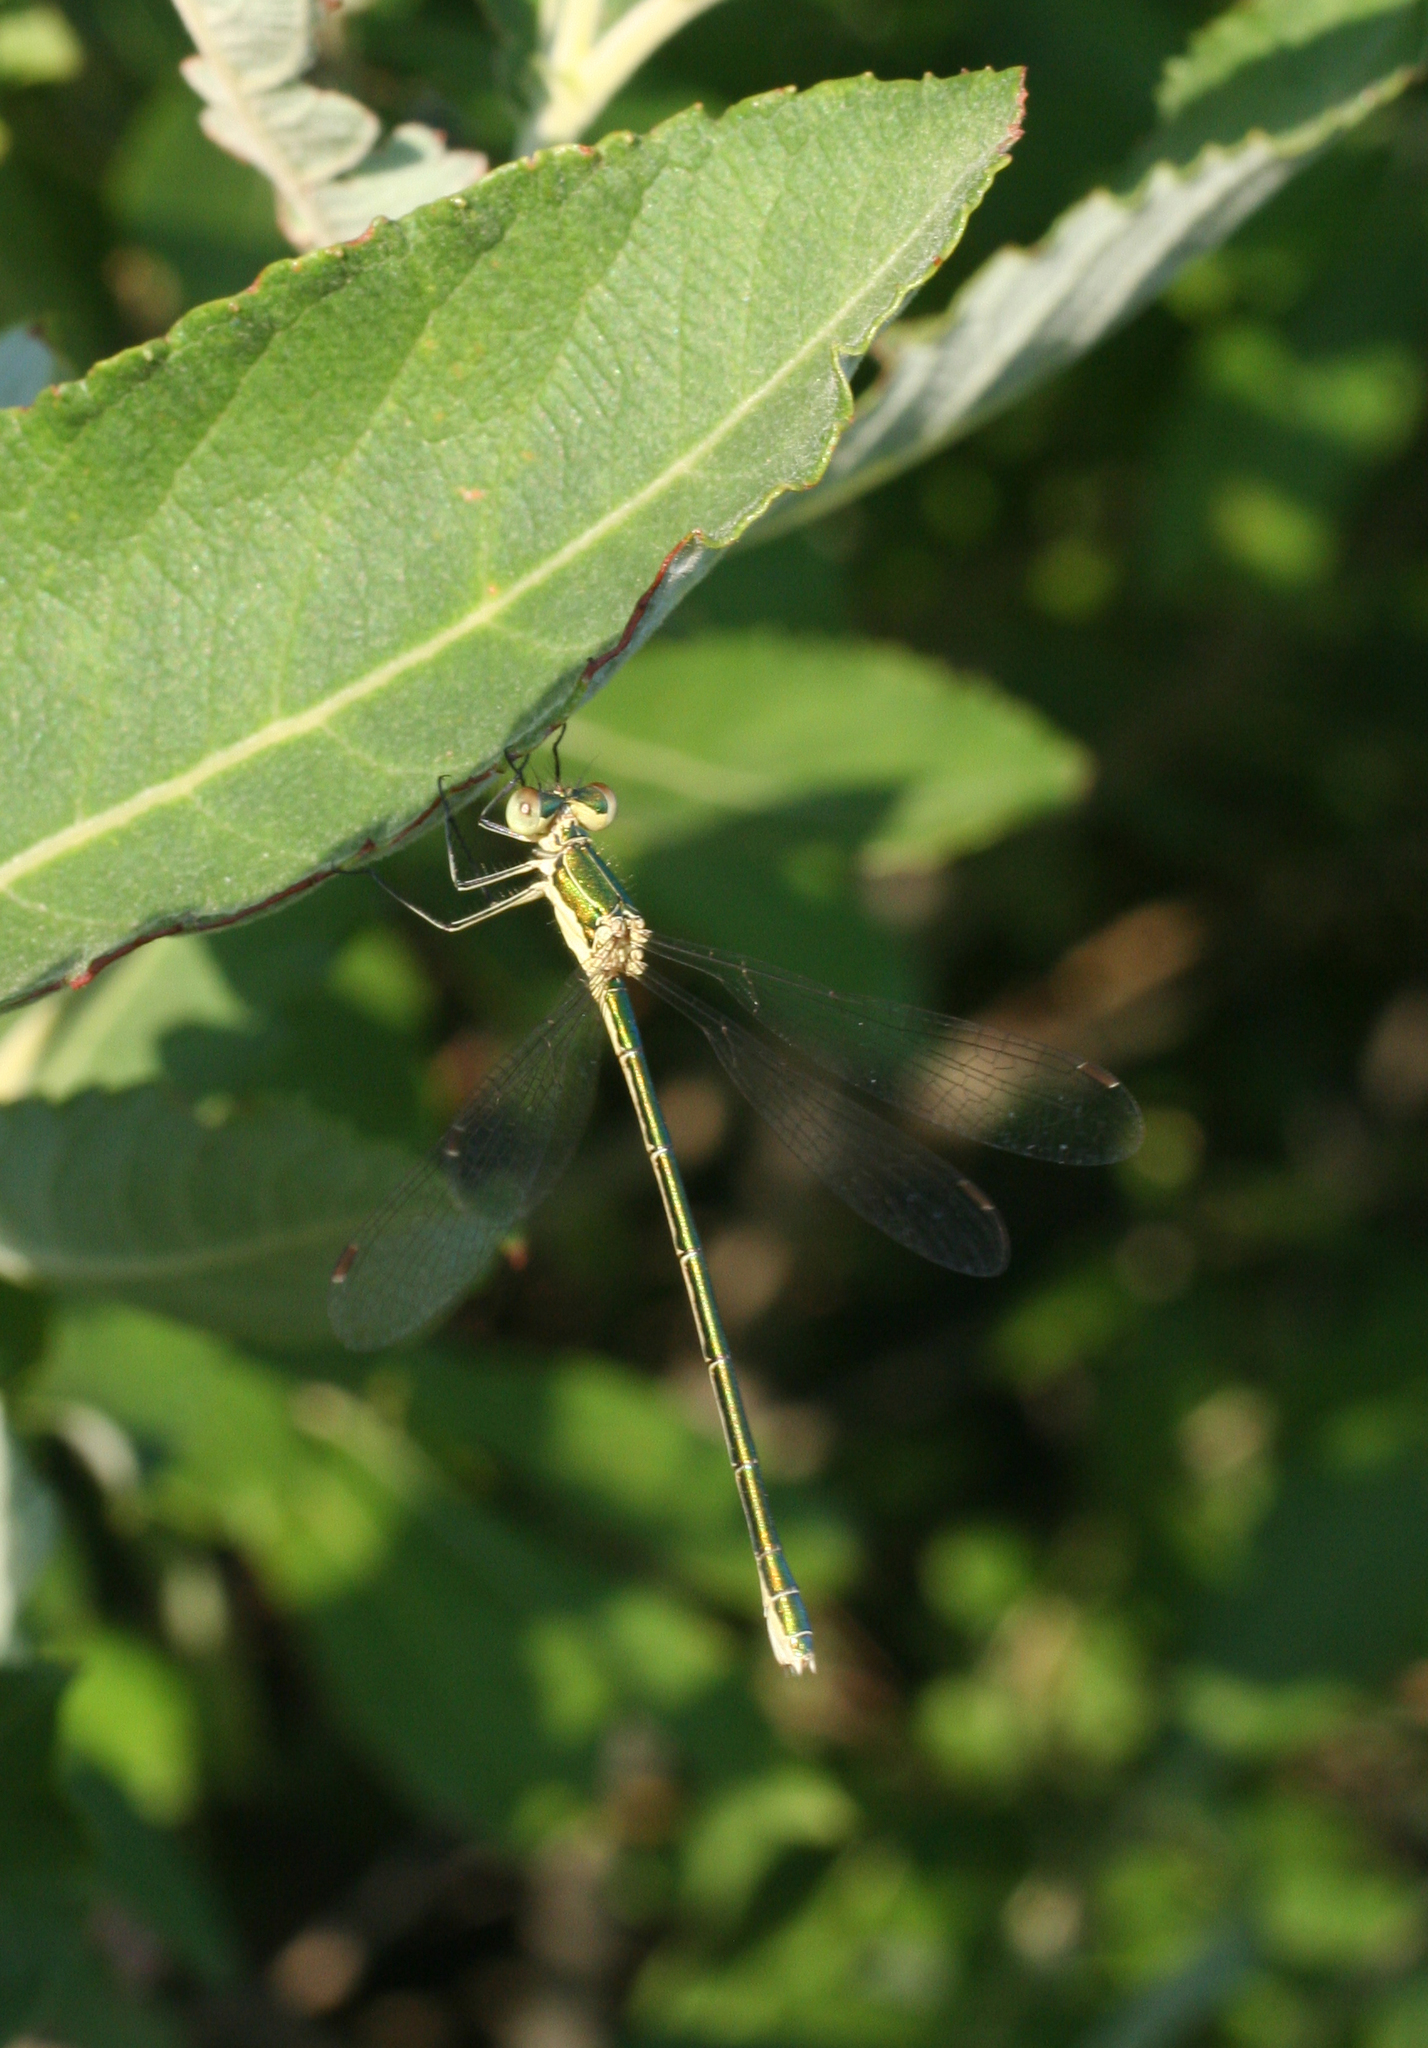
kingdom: Animalia
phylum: Arthropoda
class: Insecta
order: Odonata
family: Lestidae
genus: Lestes
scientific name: Lestes virens
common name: Small emerald spreadwing
